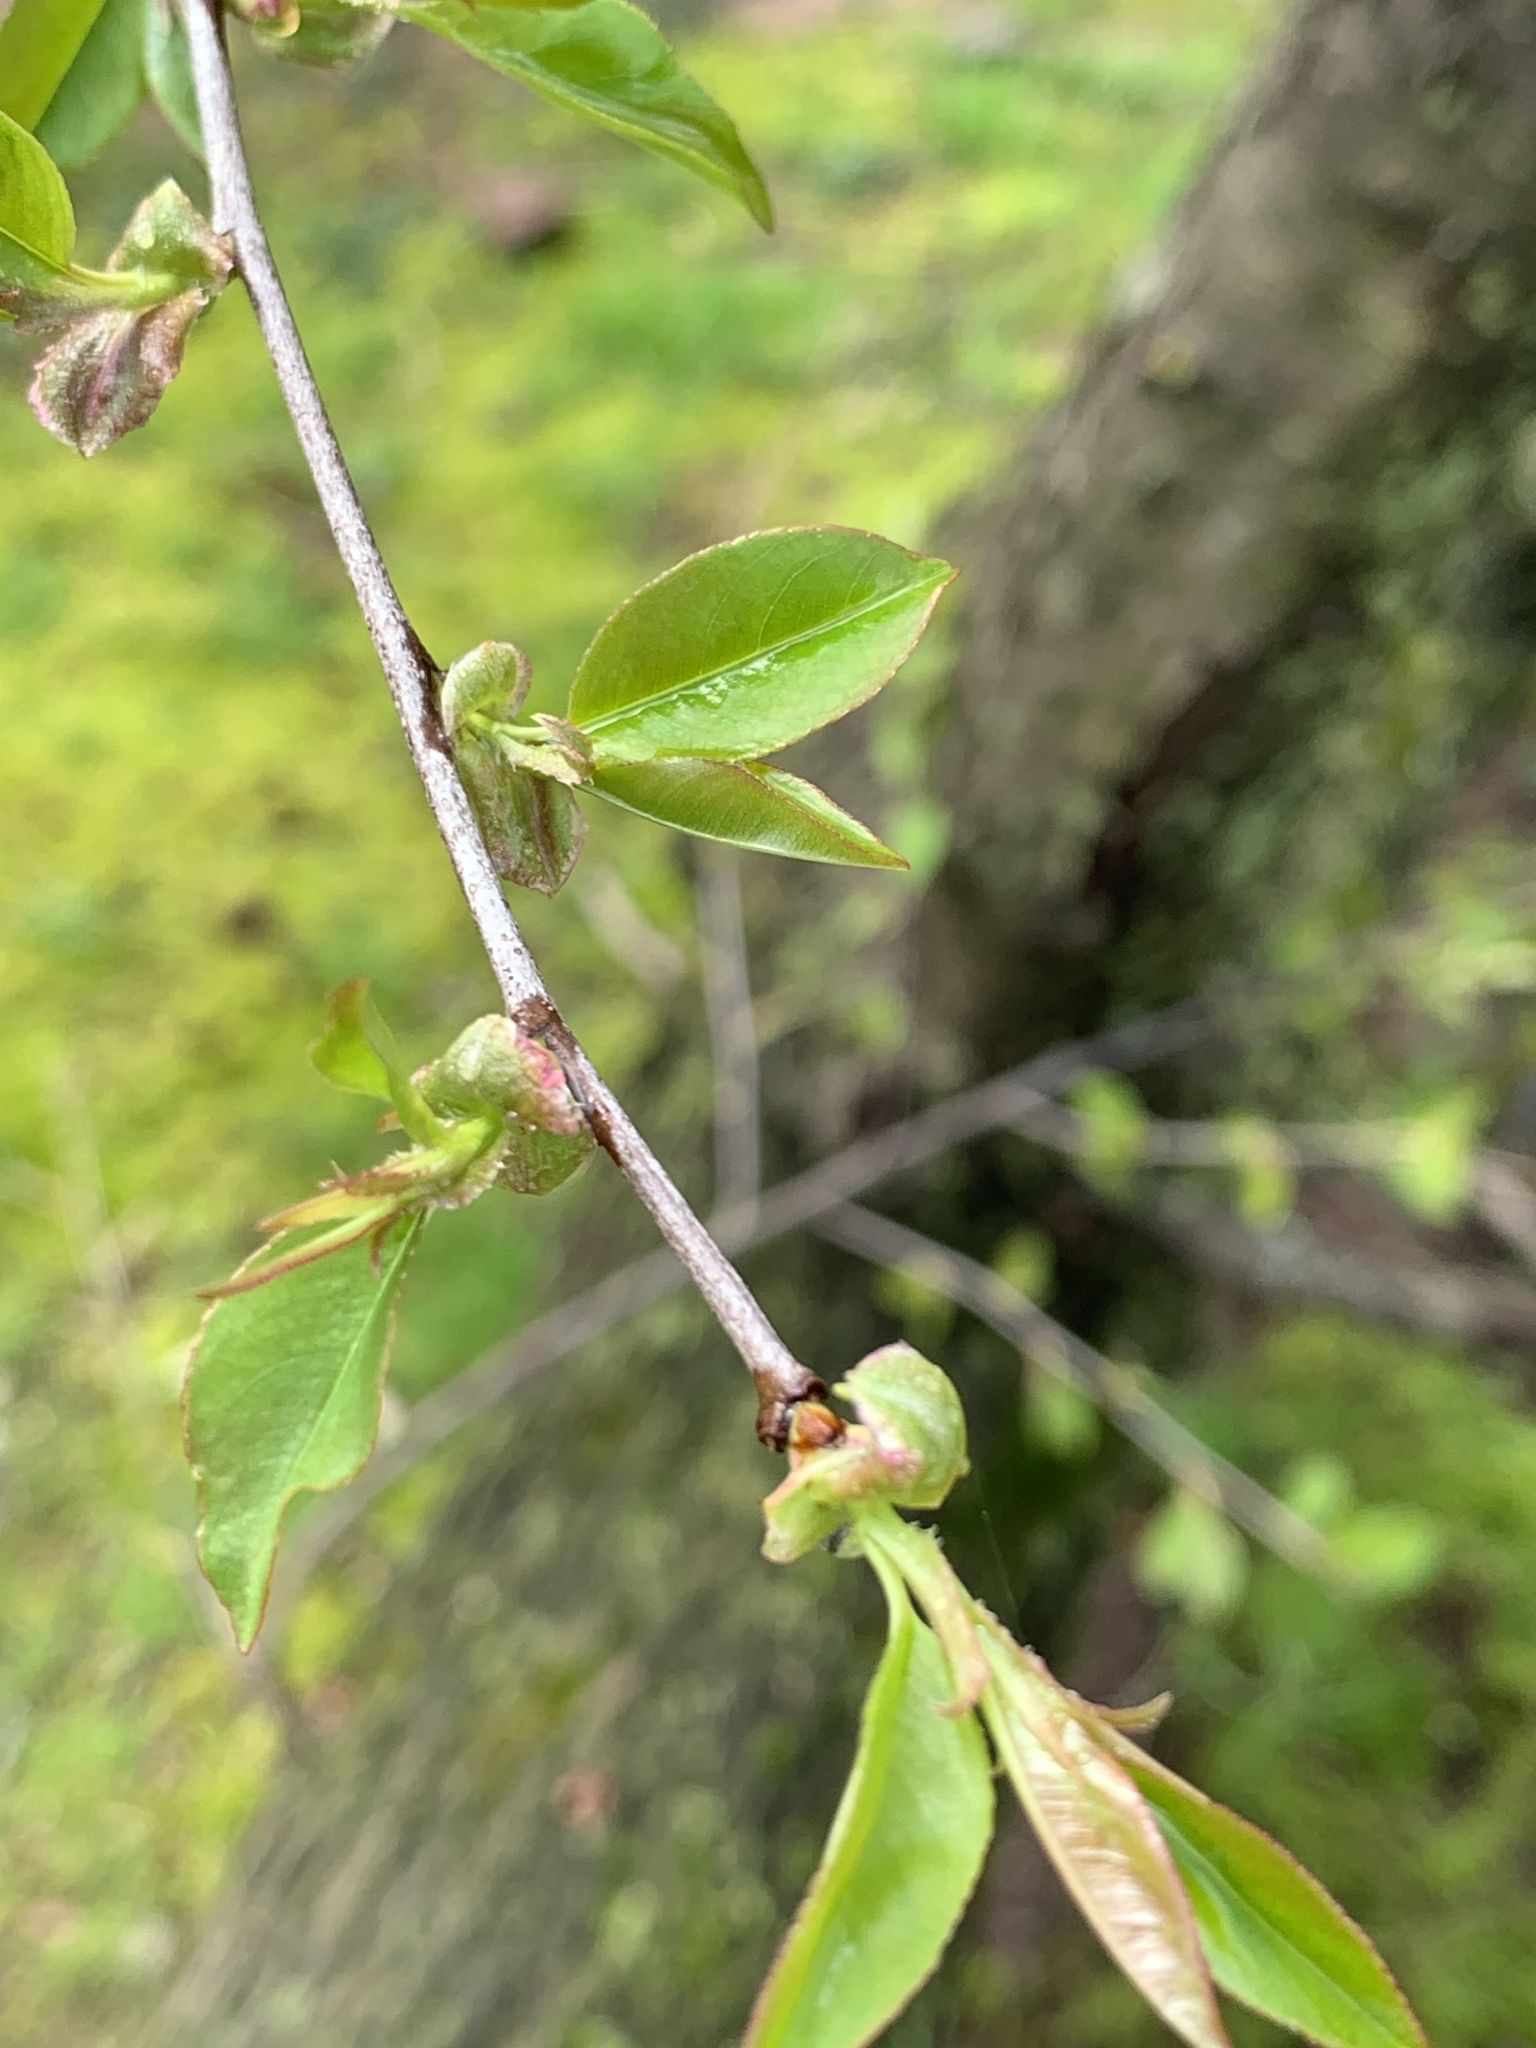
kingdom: Plantae
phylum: Tracheophyta
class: Magnoliopsida
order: Rosales
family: Rosaceae
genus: Prunus
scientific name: Prunus serotina
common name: Black cherry
